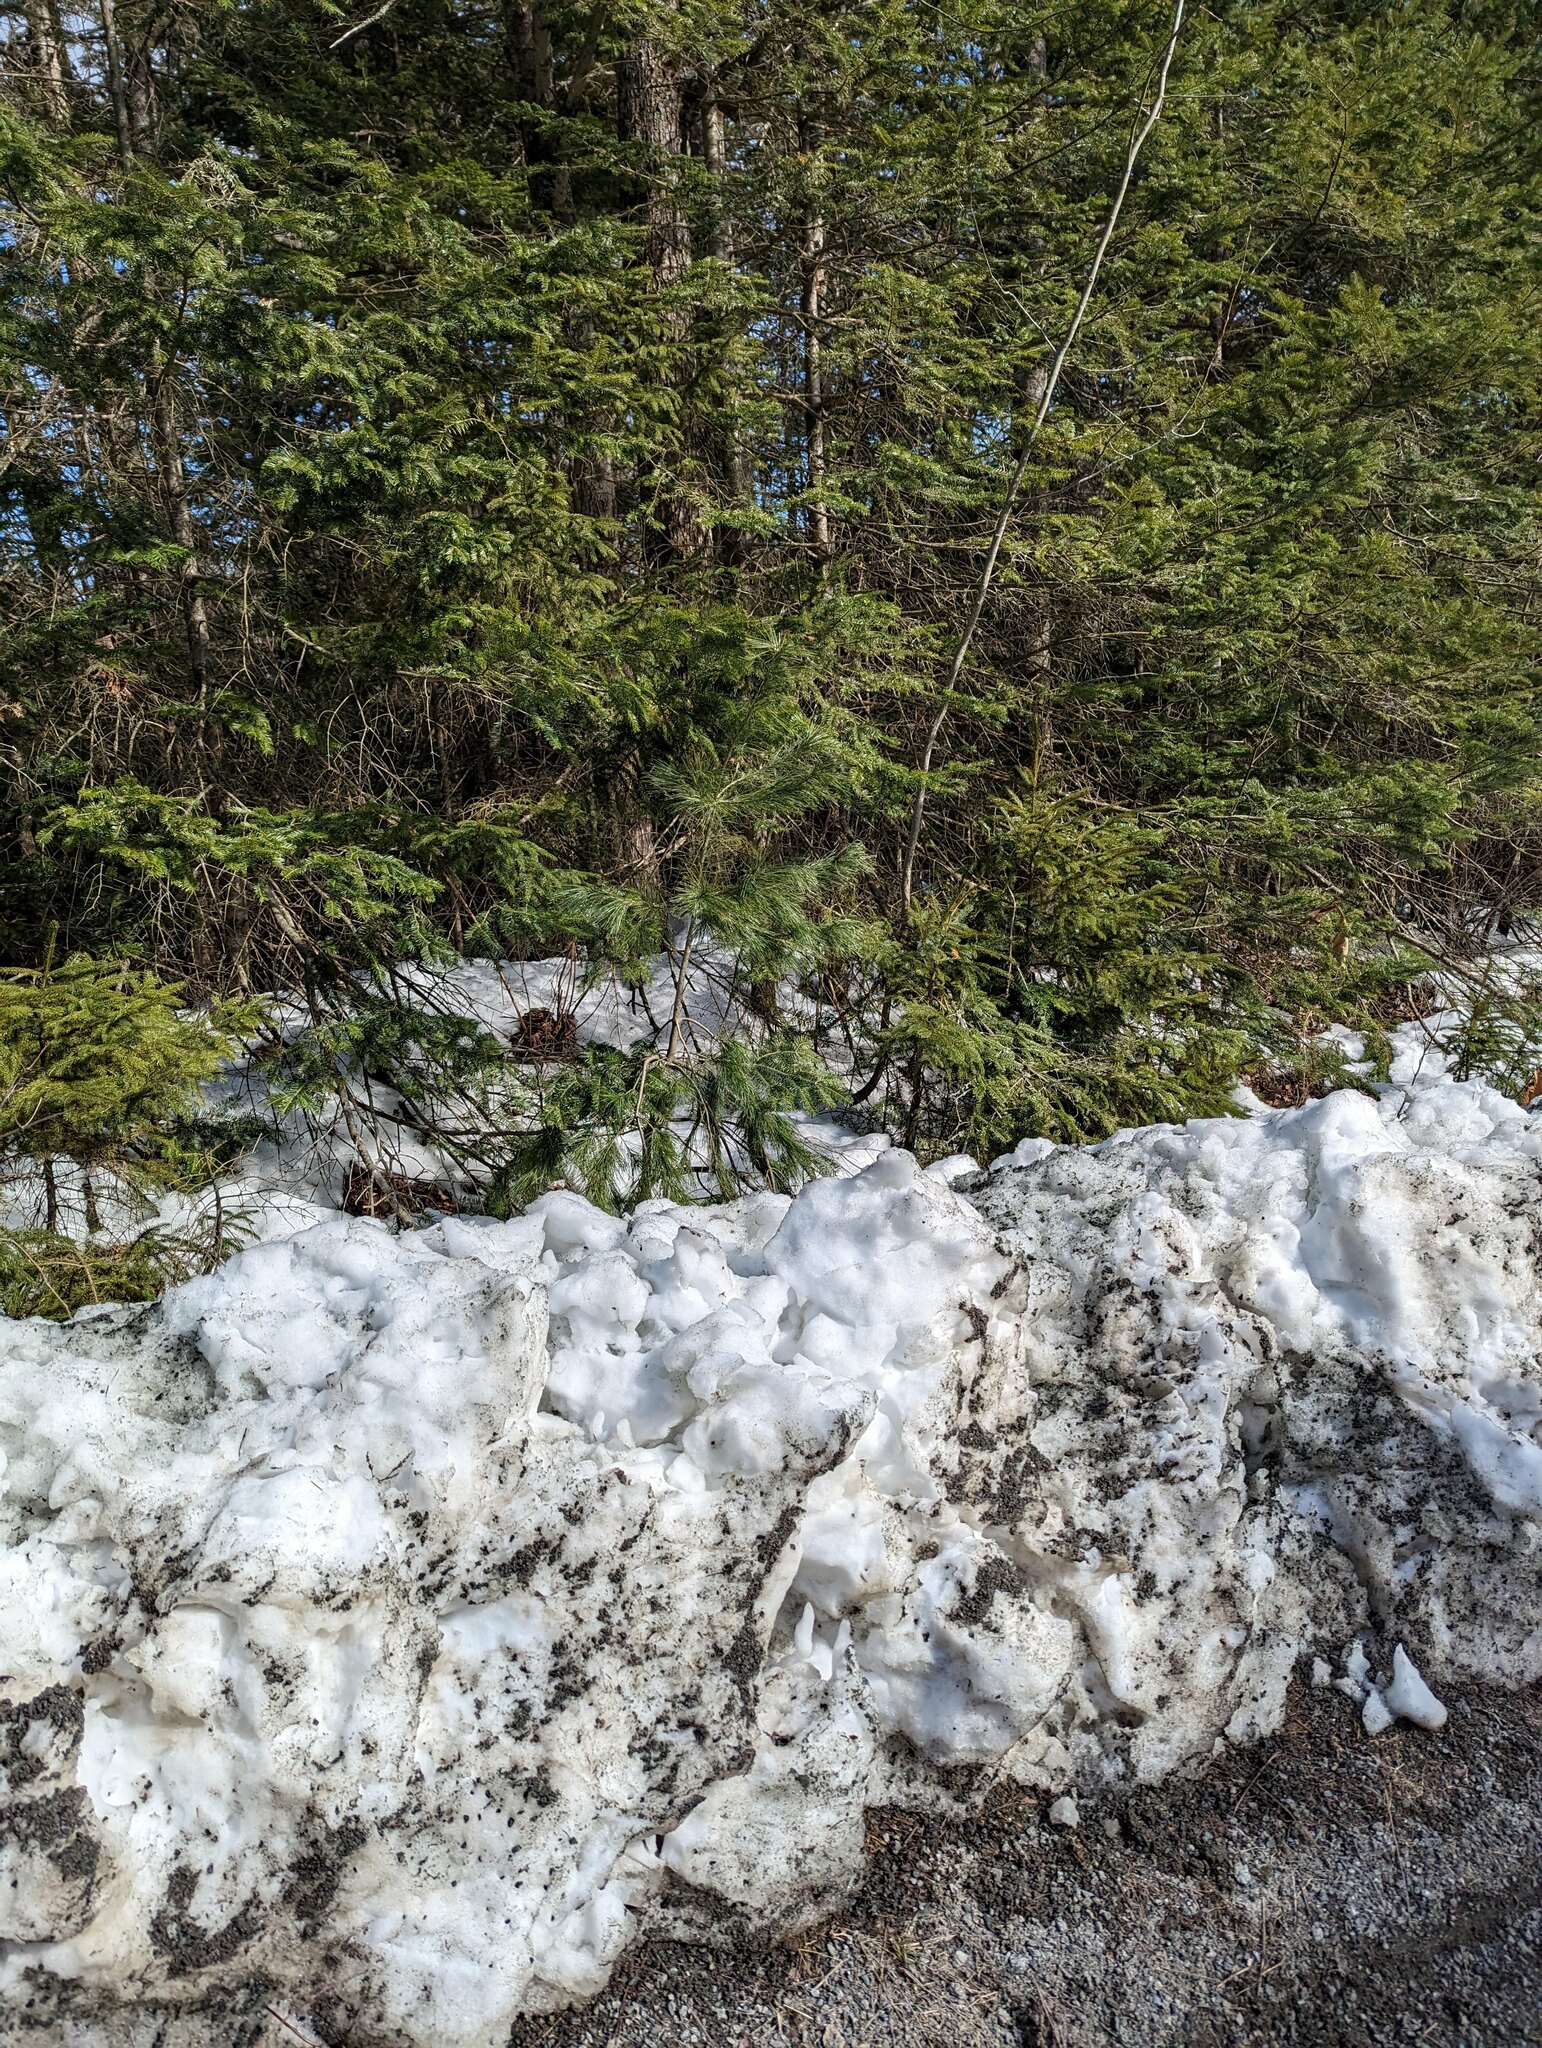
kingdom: Plantae
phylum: Tracheophyta
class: Pinopsida
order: Pinales
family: Pinaceae
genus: Pinus
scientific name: Pinus strobus
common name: Weymouth pine
